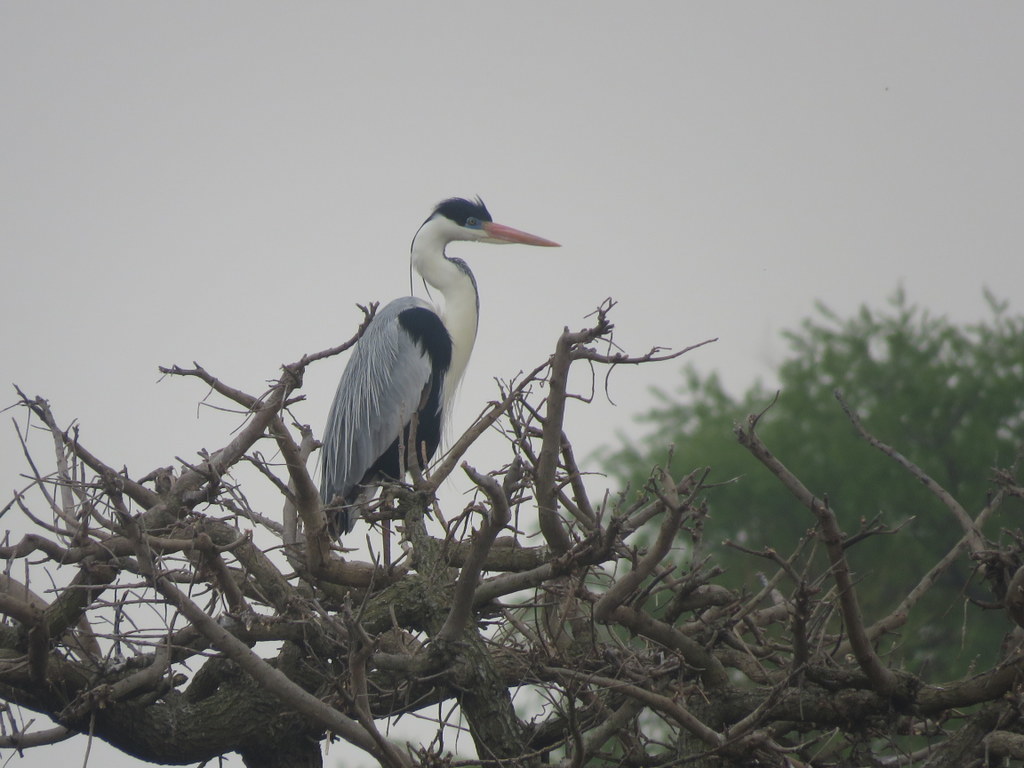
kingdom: Animalia
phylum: Chordata
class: Aves
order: Pelecaniformes
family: Ardeidae
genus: Ardea
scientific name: Ardea cocoi
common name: Cocoi heron
